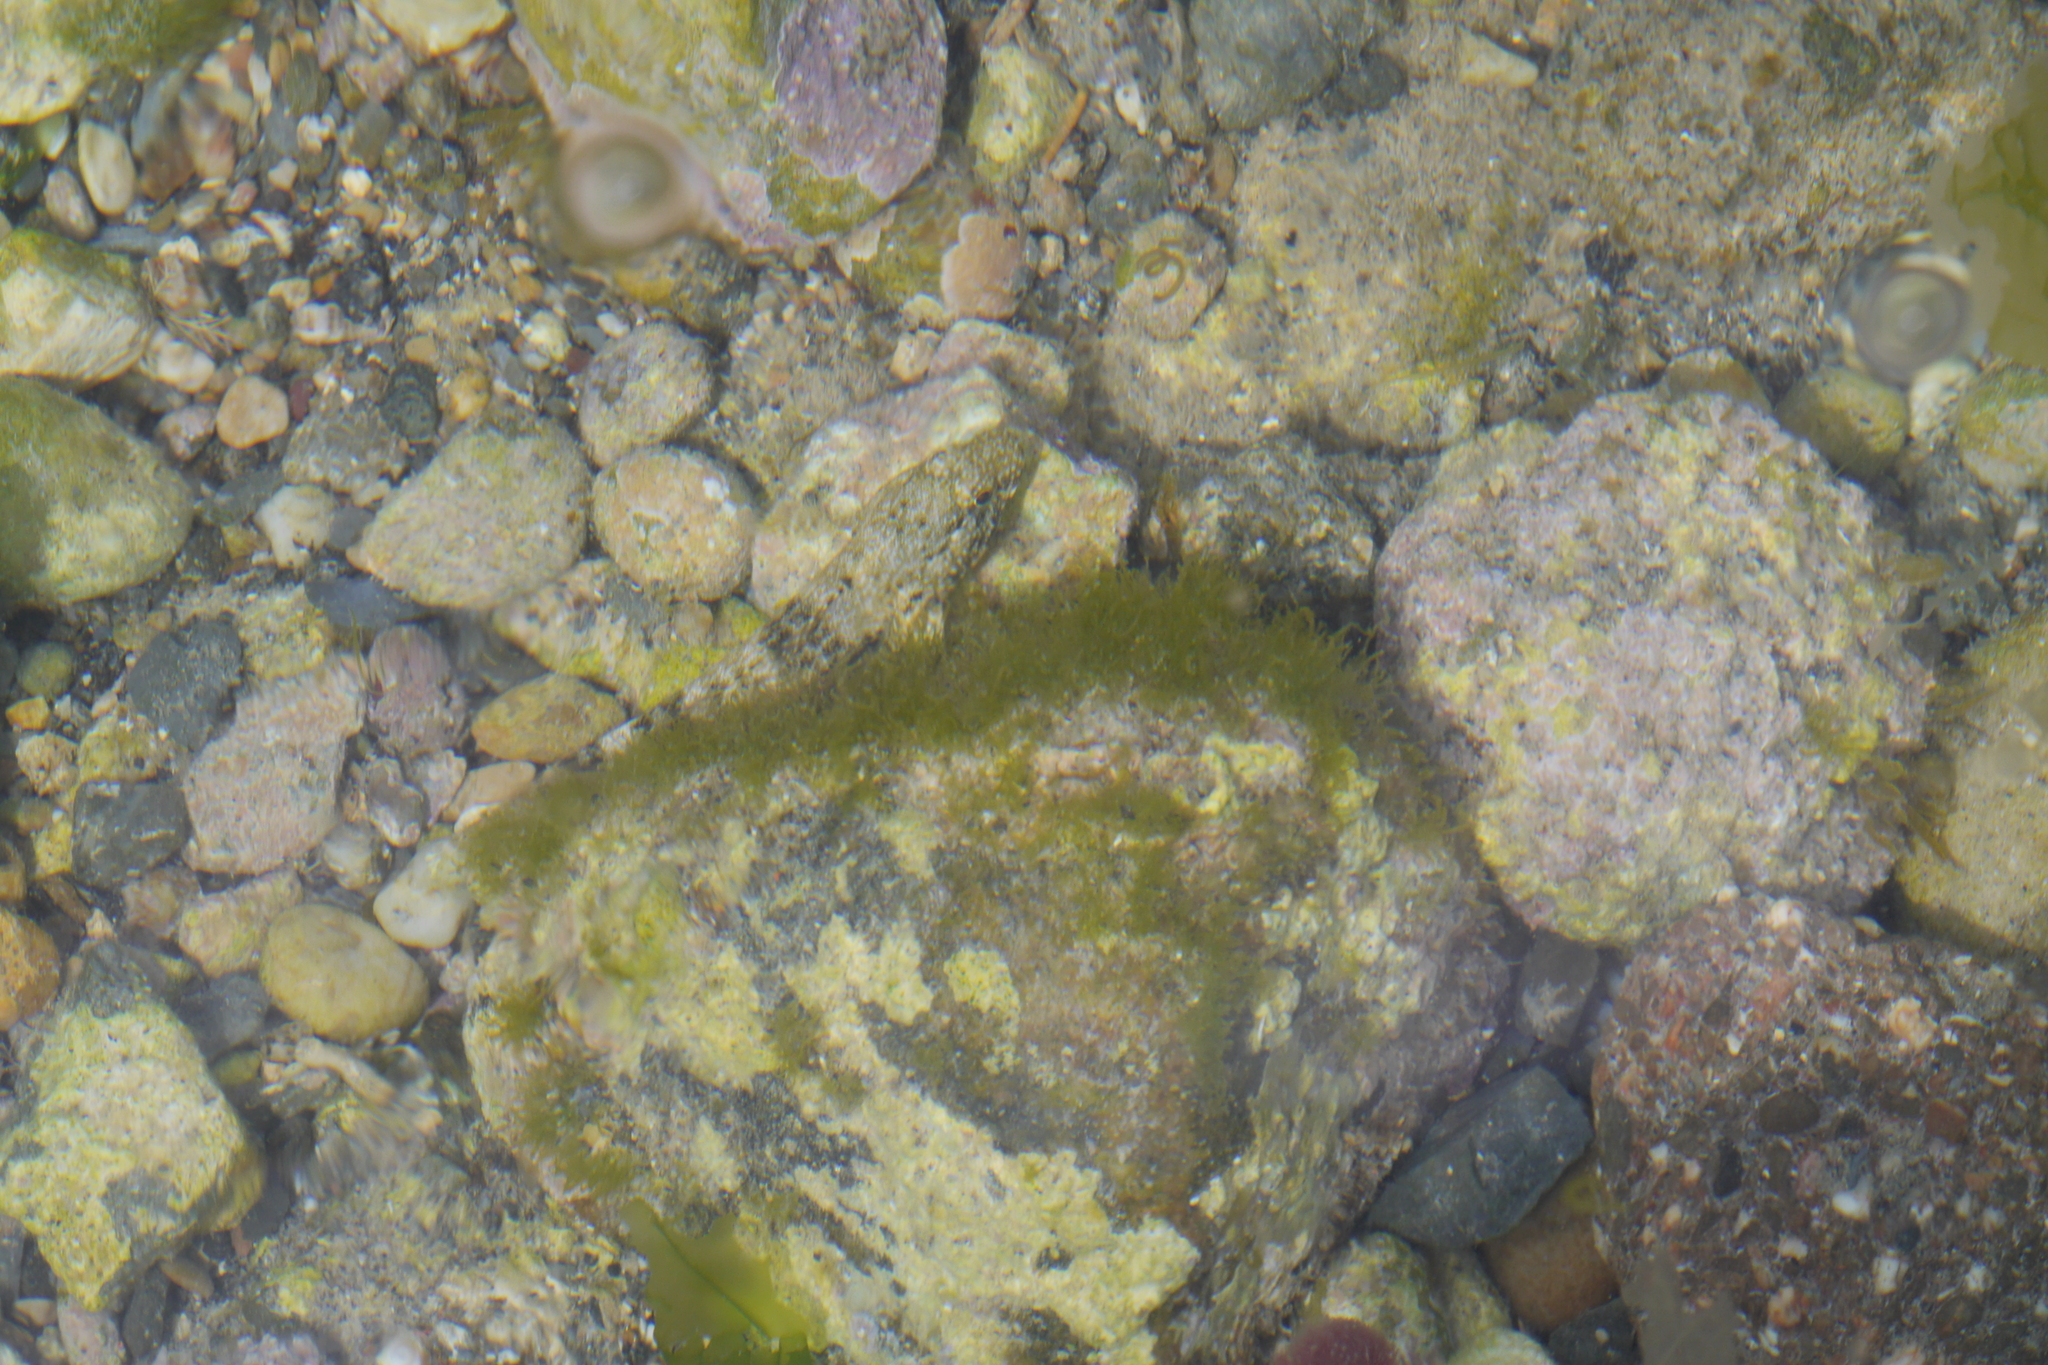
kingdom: Animalia
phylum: Chordata
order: Perciformes
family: Gobiidae
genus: Gobius
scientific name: Gobius cobitis
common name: Giant goby
